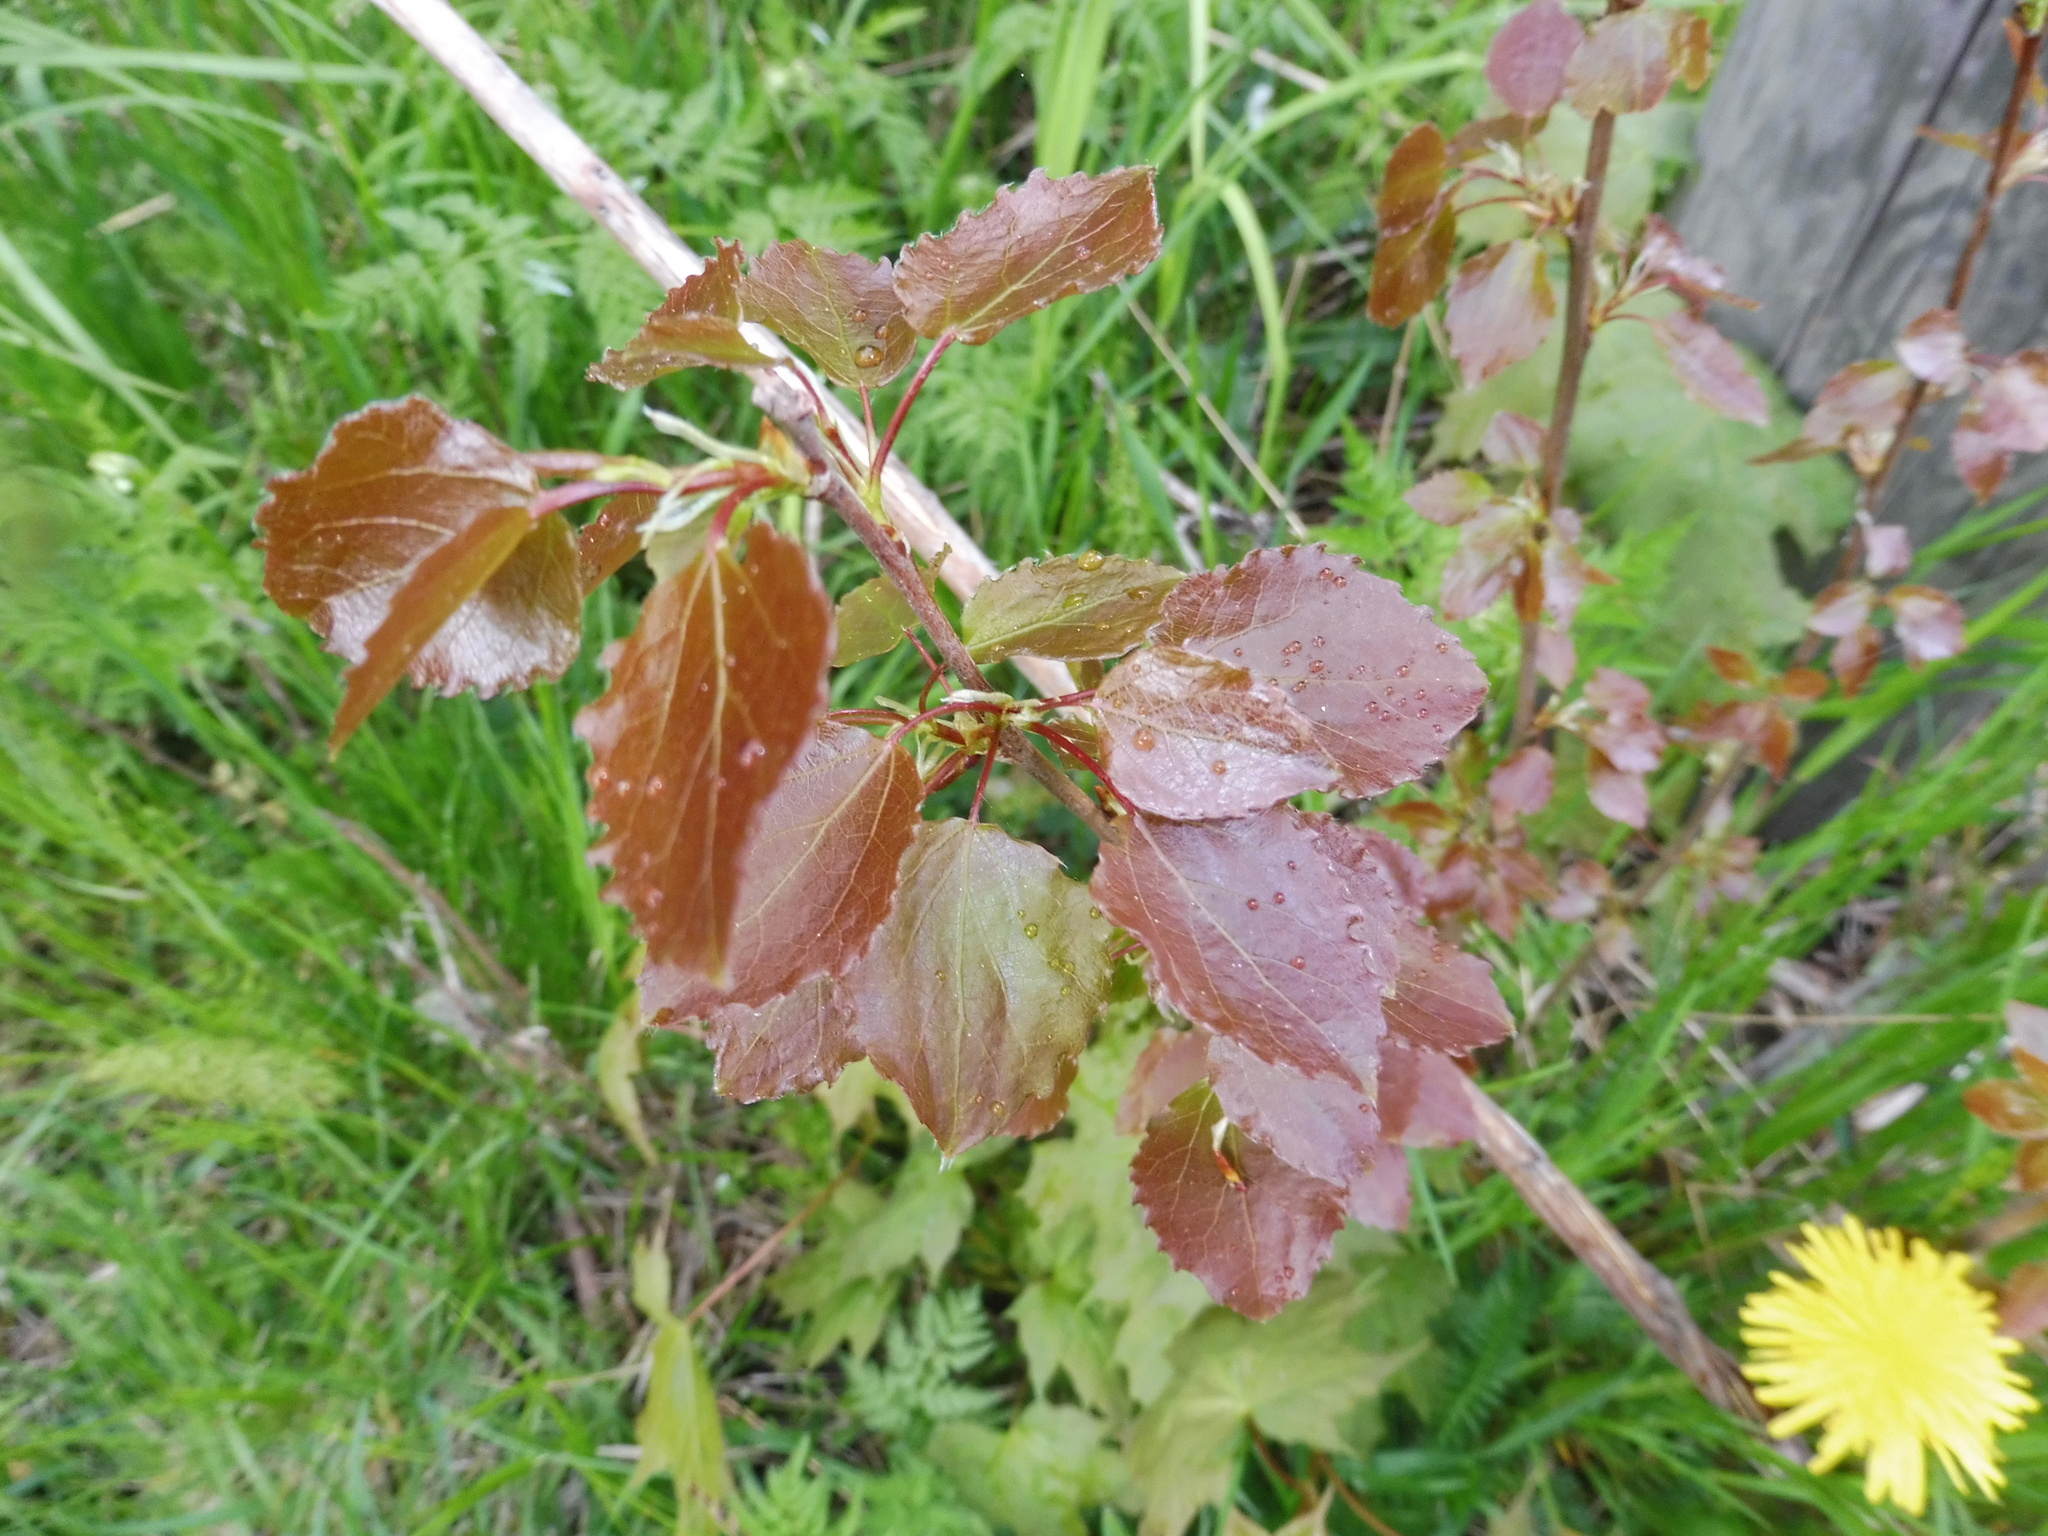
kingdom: Plantae
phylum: Tracheophyta
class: Magnoliopsida
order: Malpighiales
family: Salicaceae
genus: Populus
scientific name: Populus tremula
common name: European aspen
